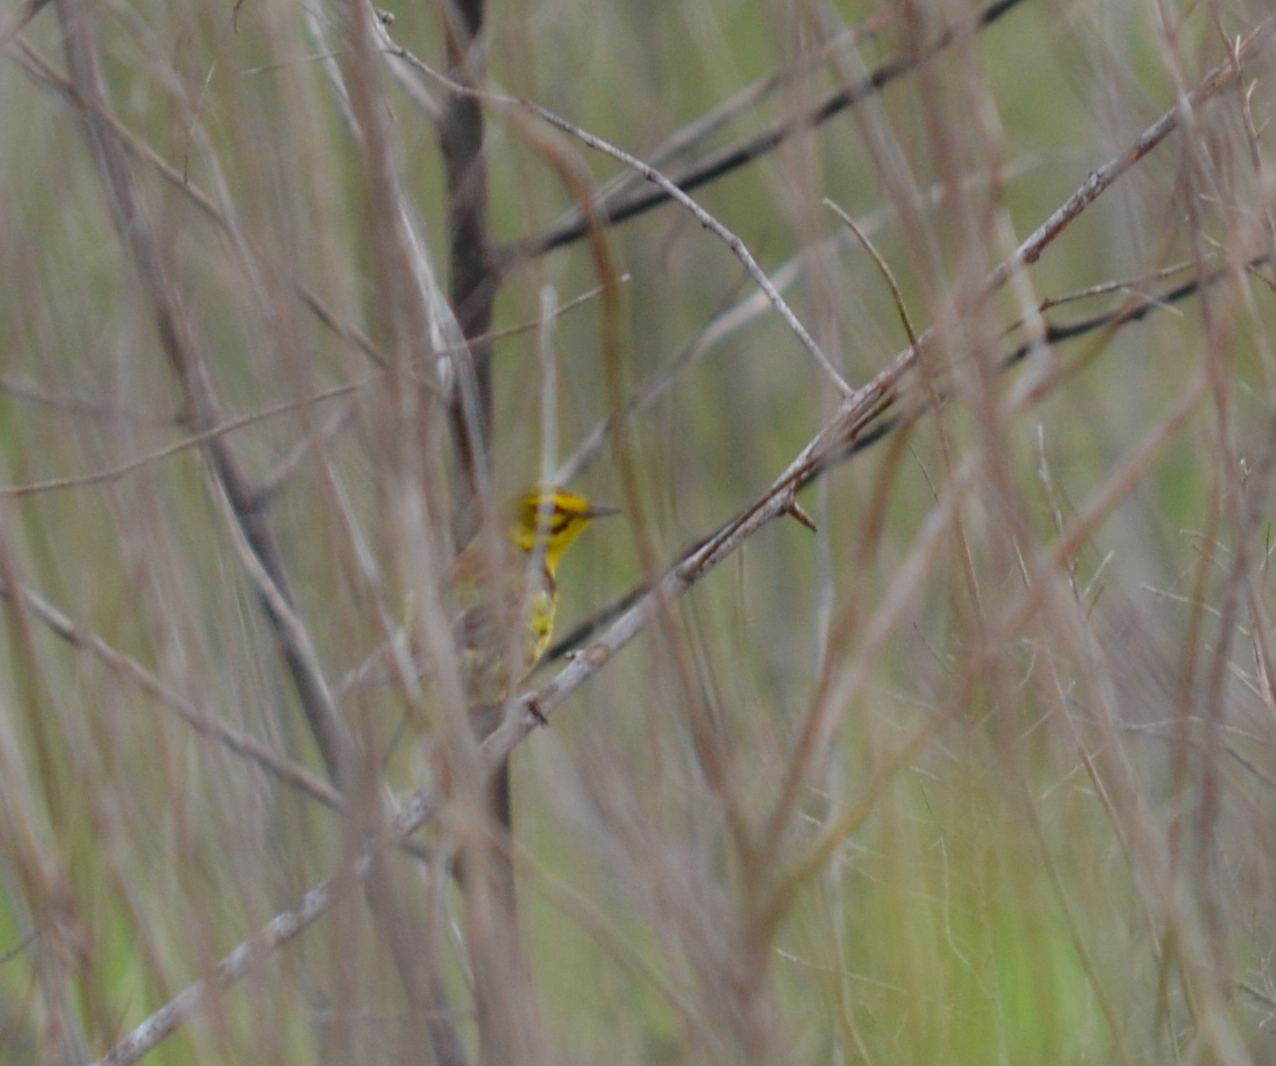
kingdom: Animalia
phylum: Chordata
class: Aves
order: Passeriformes
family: Parulidae
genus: Setophaga
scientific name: Setophaga discolor
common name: Prairie warbler
